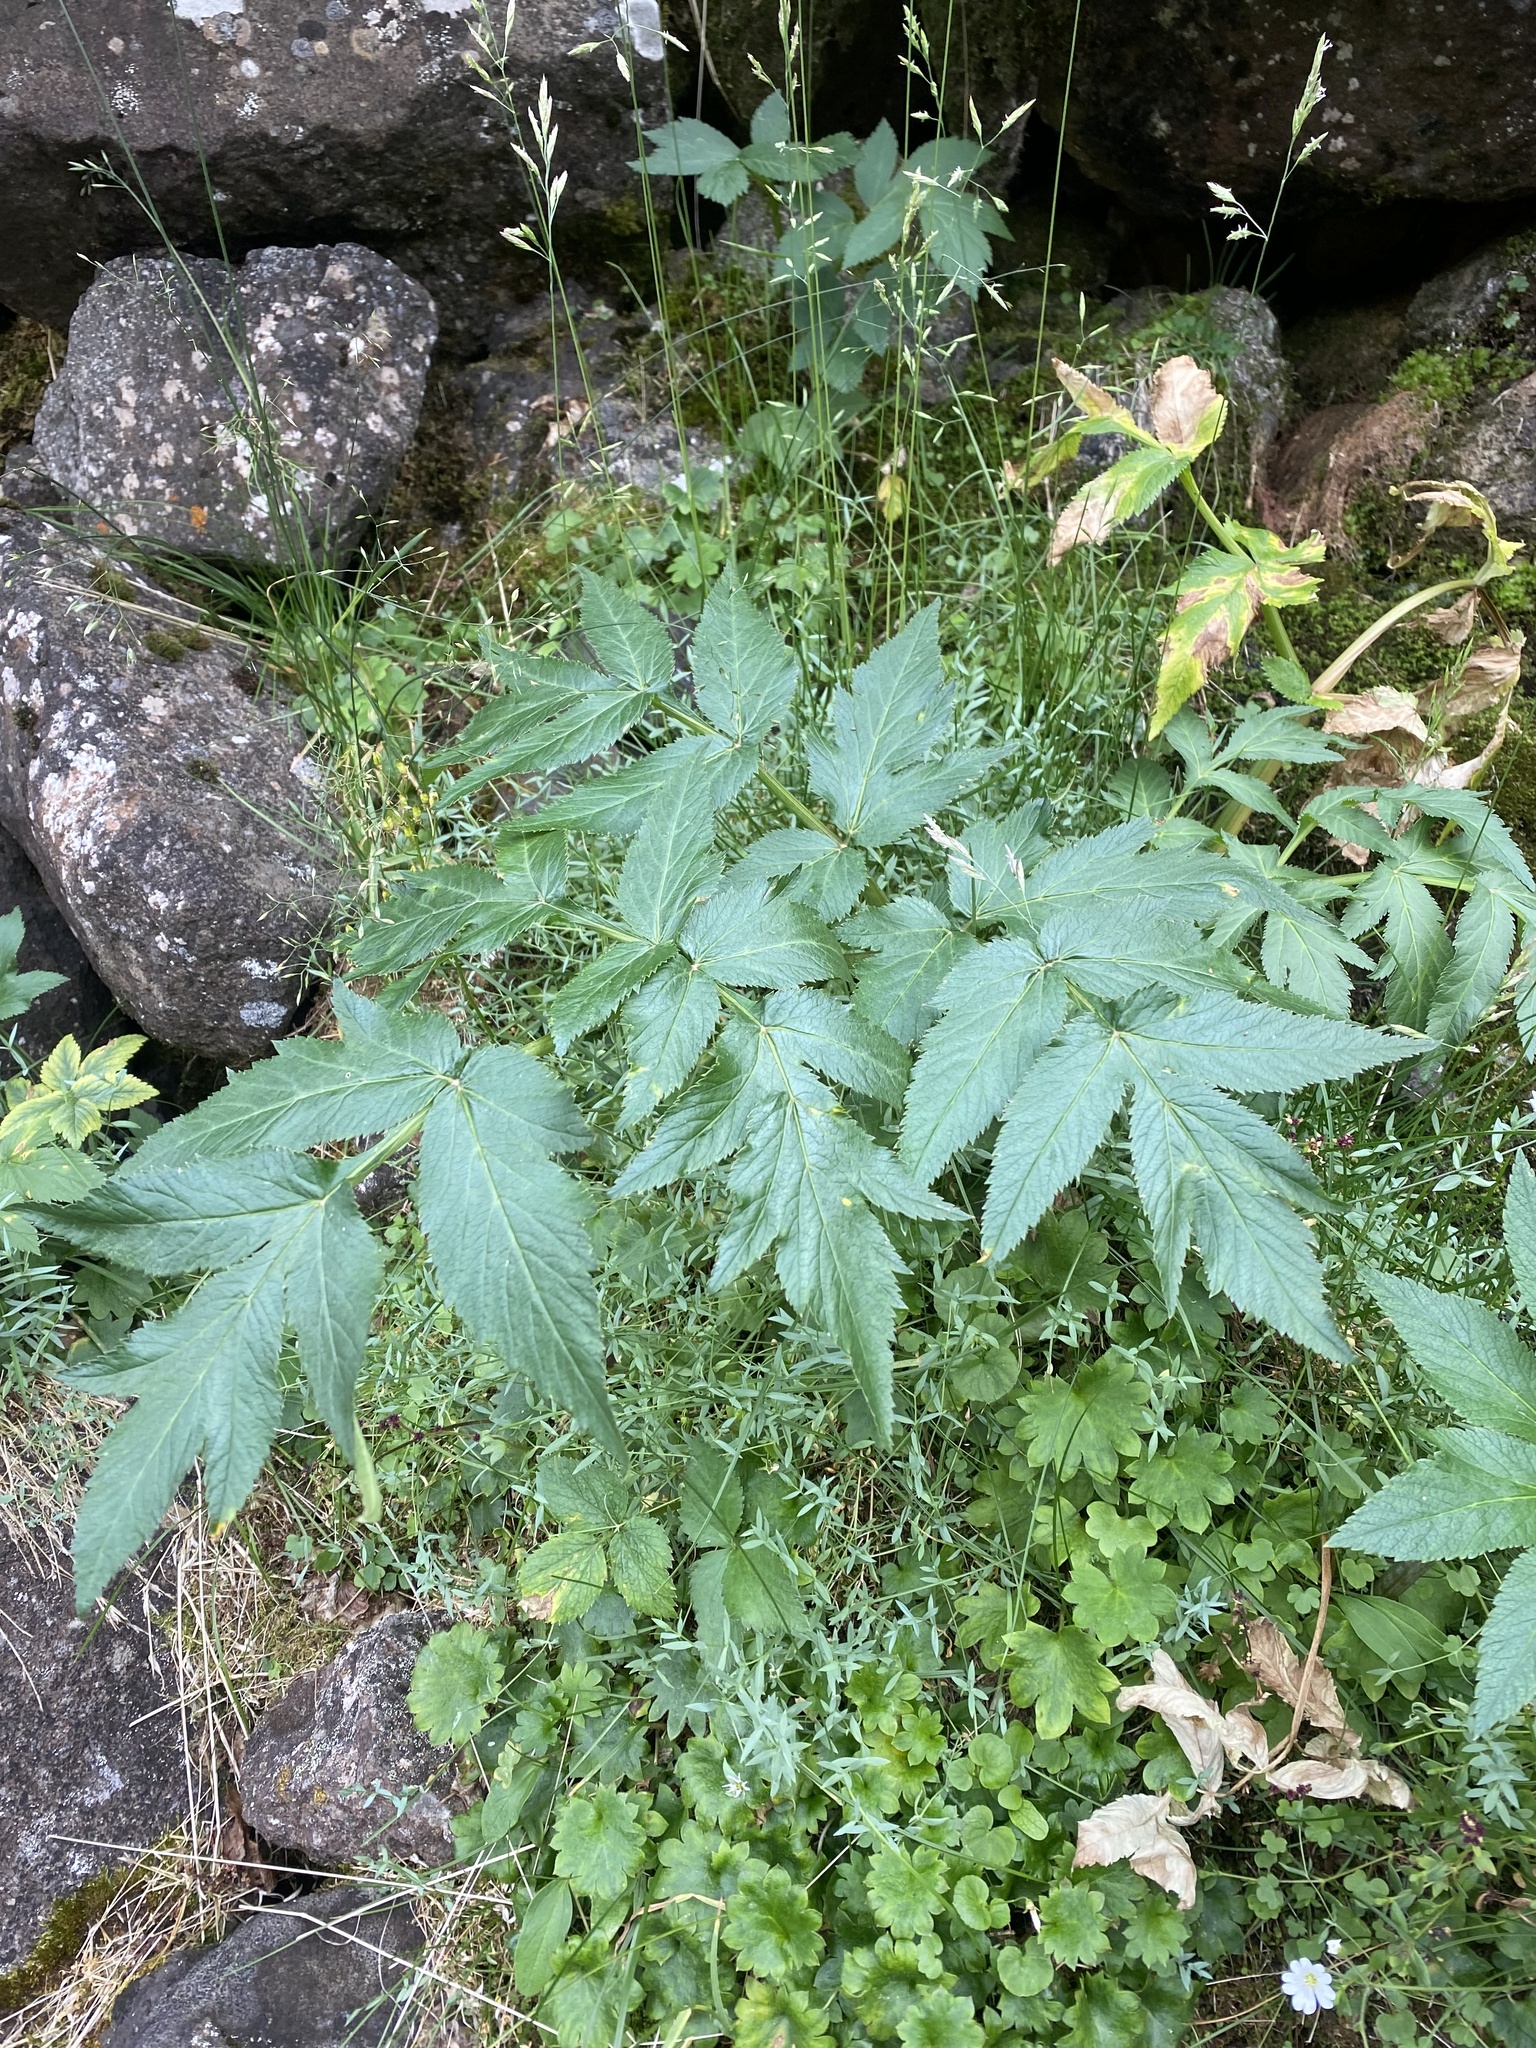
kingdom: Plantae
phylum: Tracheophyta
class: Magnoliopsida
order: Apiales
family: Apiaceae
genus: Angelica
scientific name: Angelica decurrens
